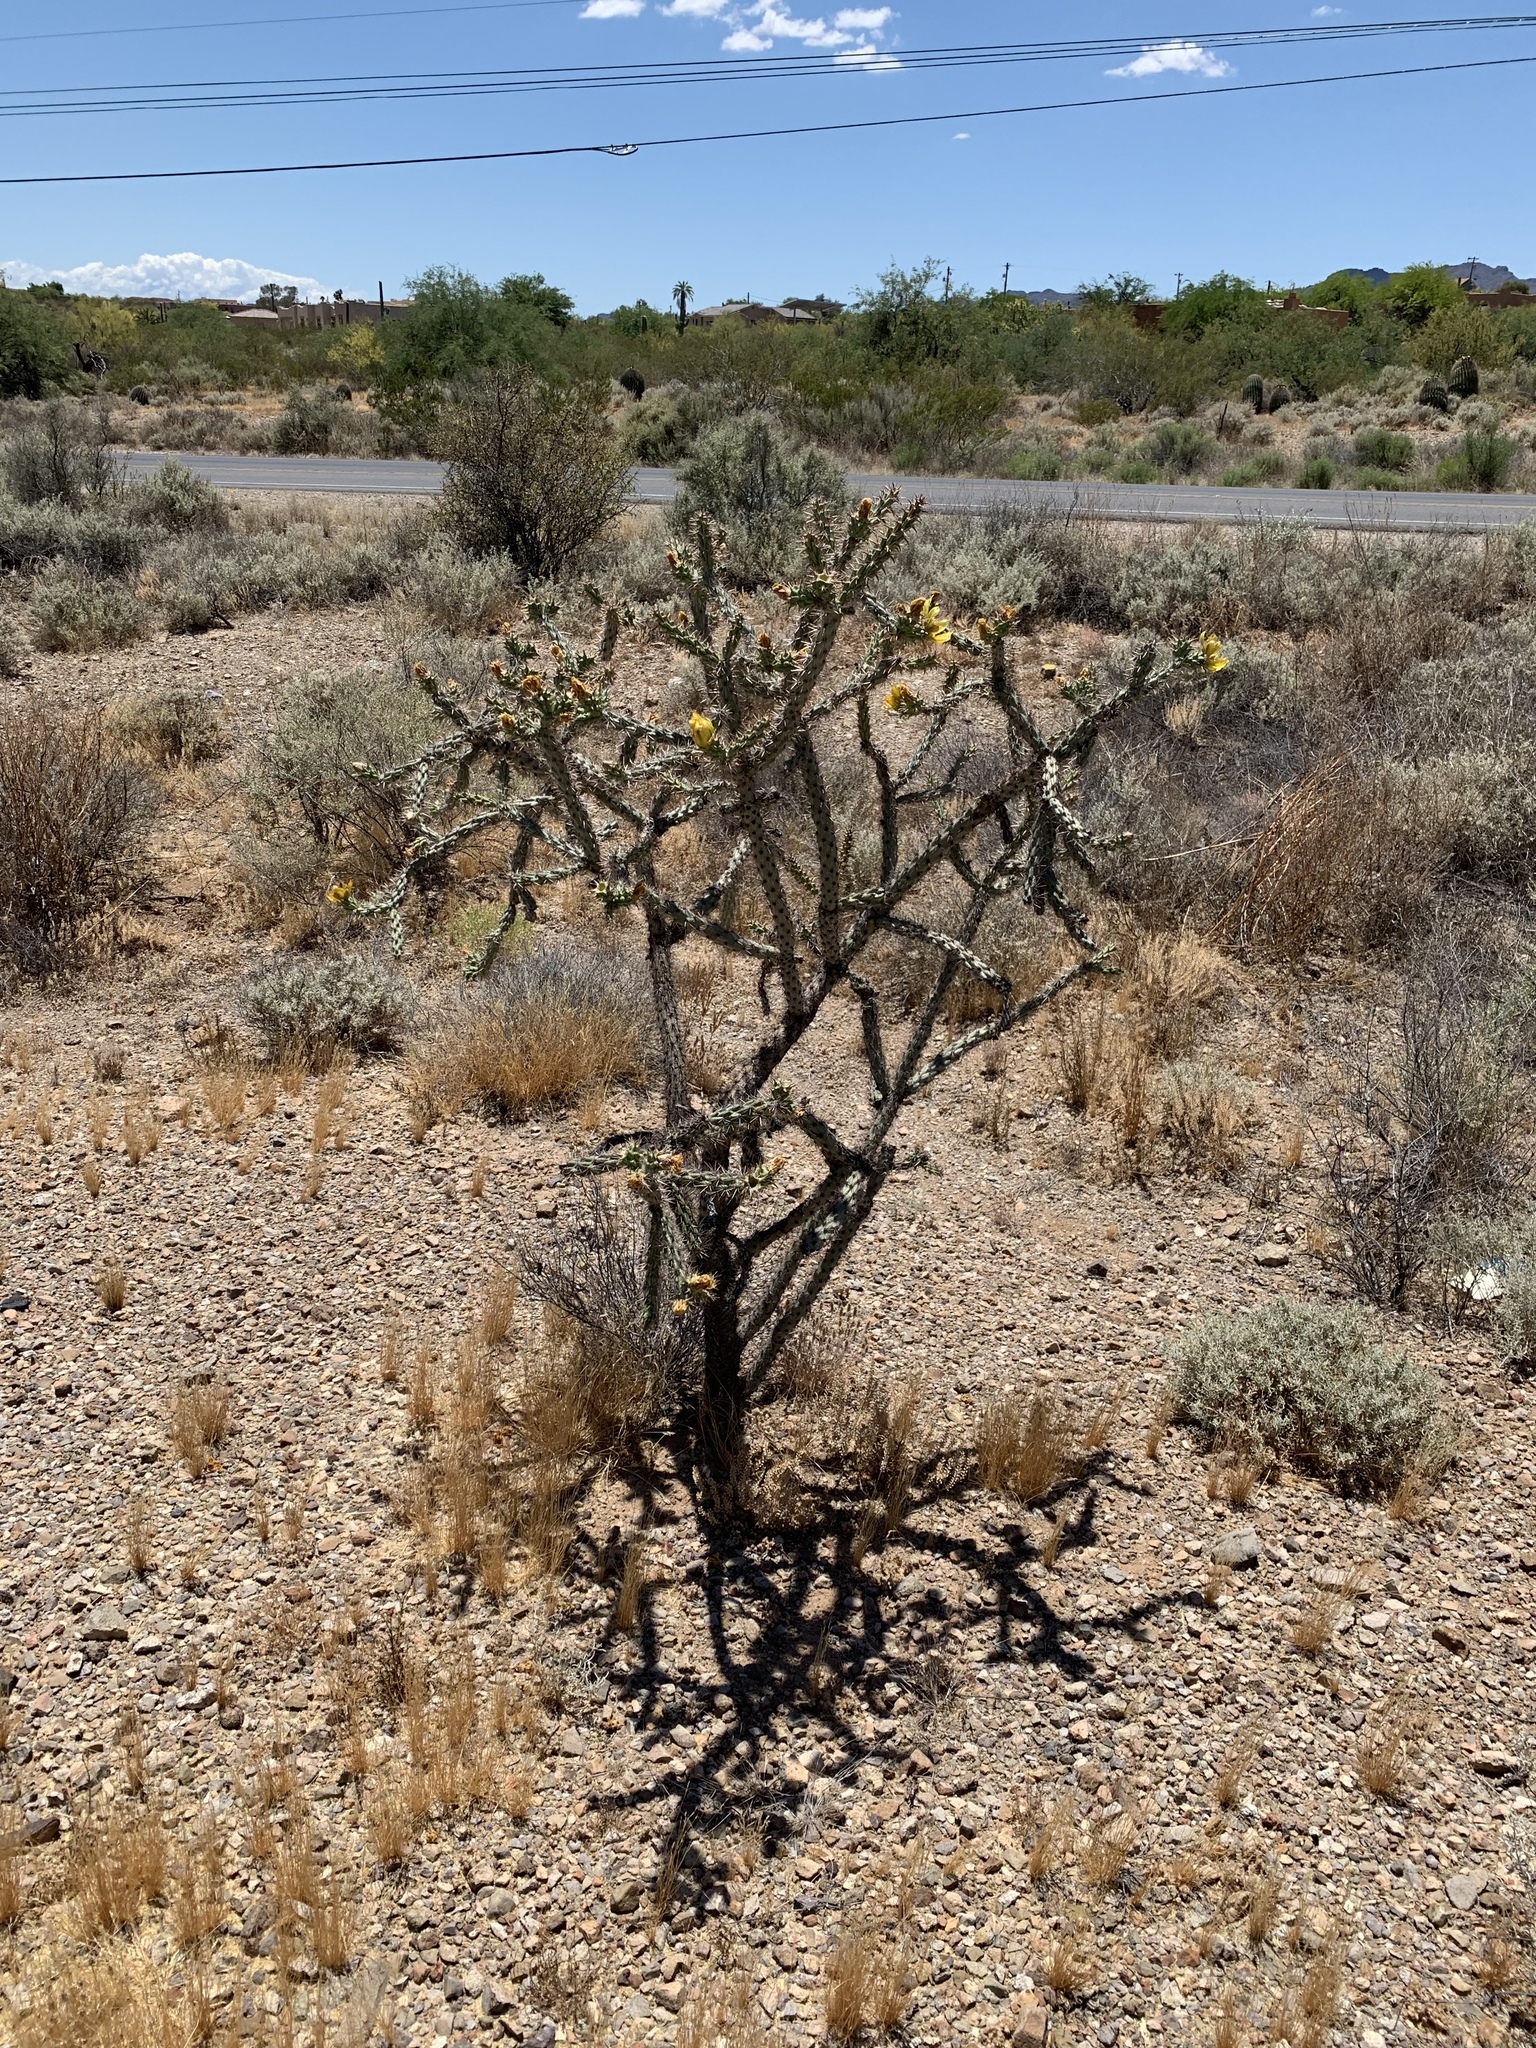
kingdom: Plantae
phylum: Tracheophyta
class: Magnoliopsida
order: Caryophyllales
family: Cactaceae
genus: Cylindropuntia
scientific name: Cylindropuntia thurberi
